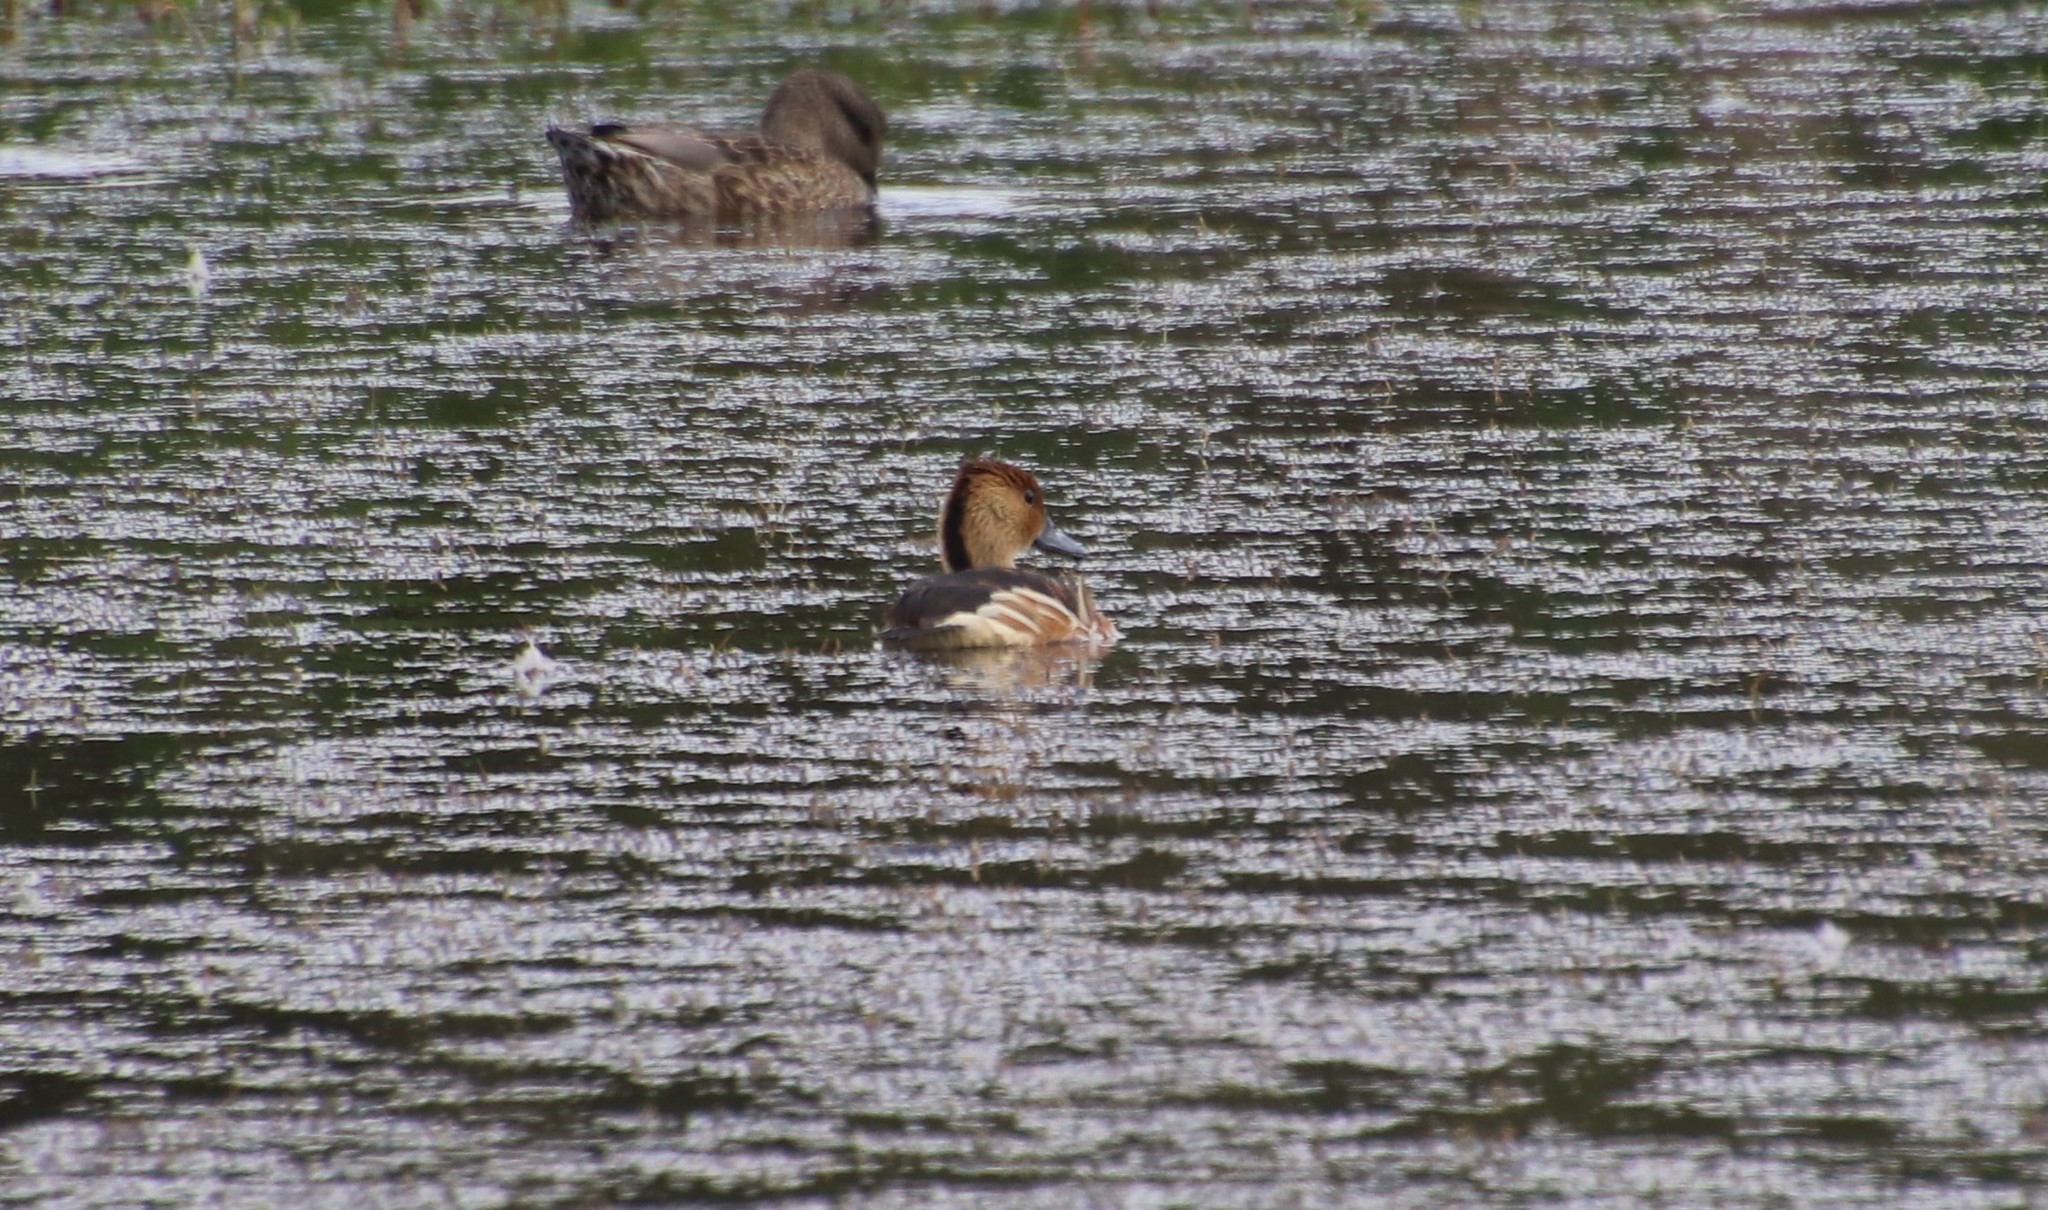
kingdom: Animalia
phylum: Chordata
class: Aves
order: Anseriformes
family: Anatidae
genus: Dendrocygna
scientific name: Dendrocygna bicolor
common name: Fulvous whistling duck
